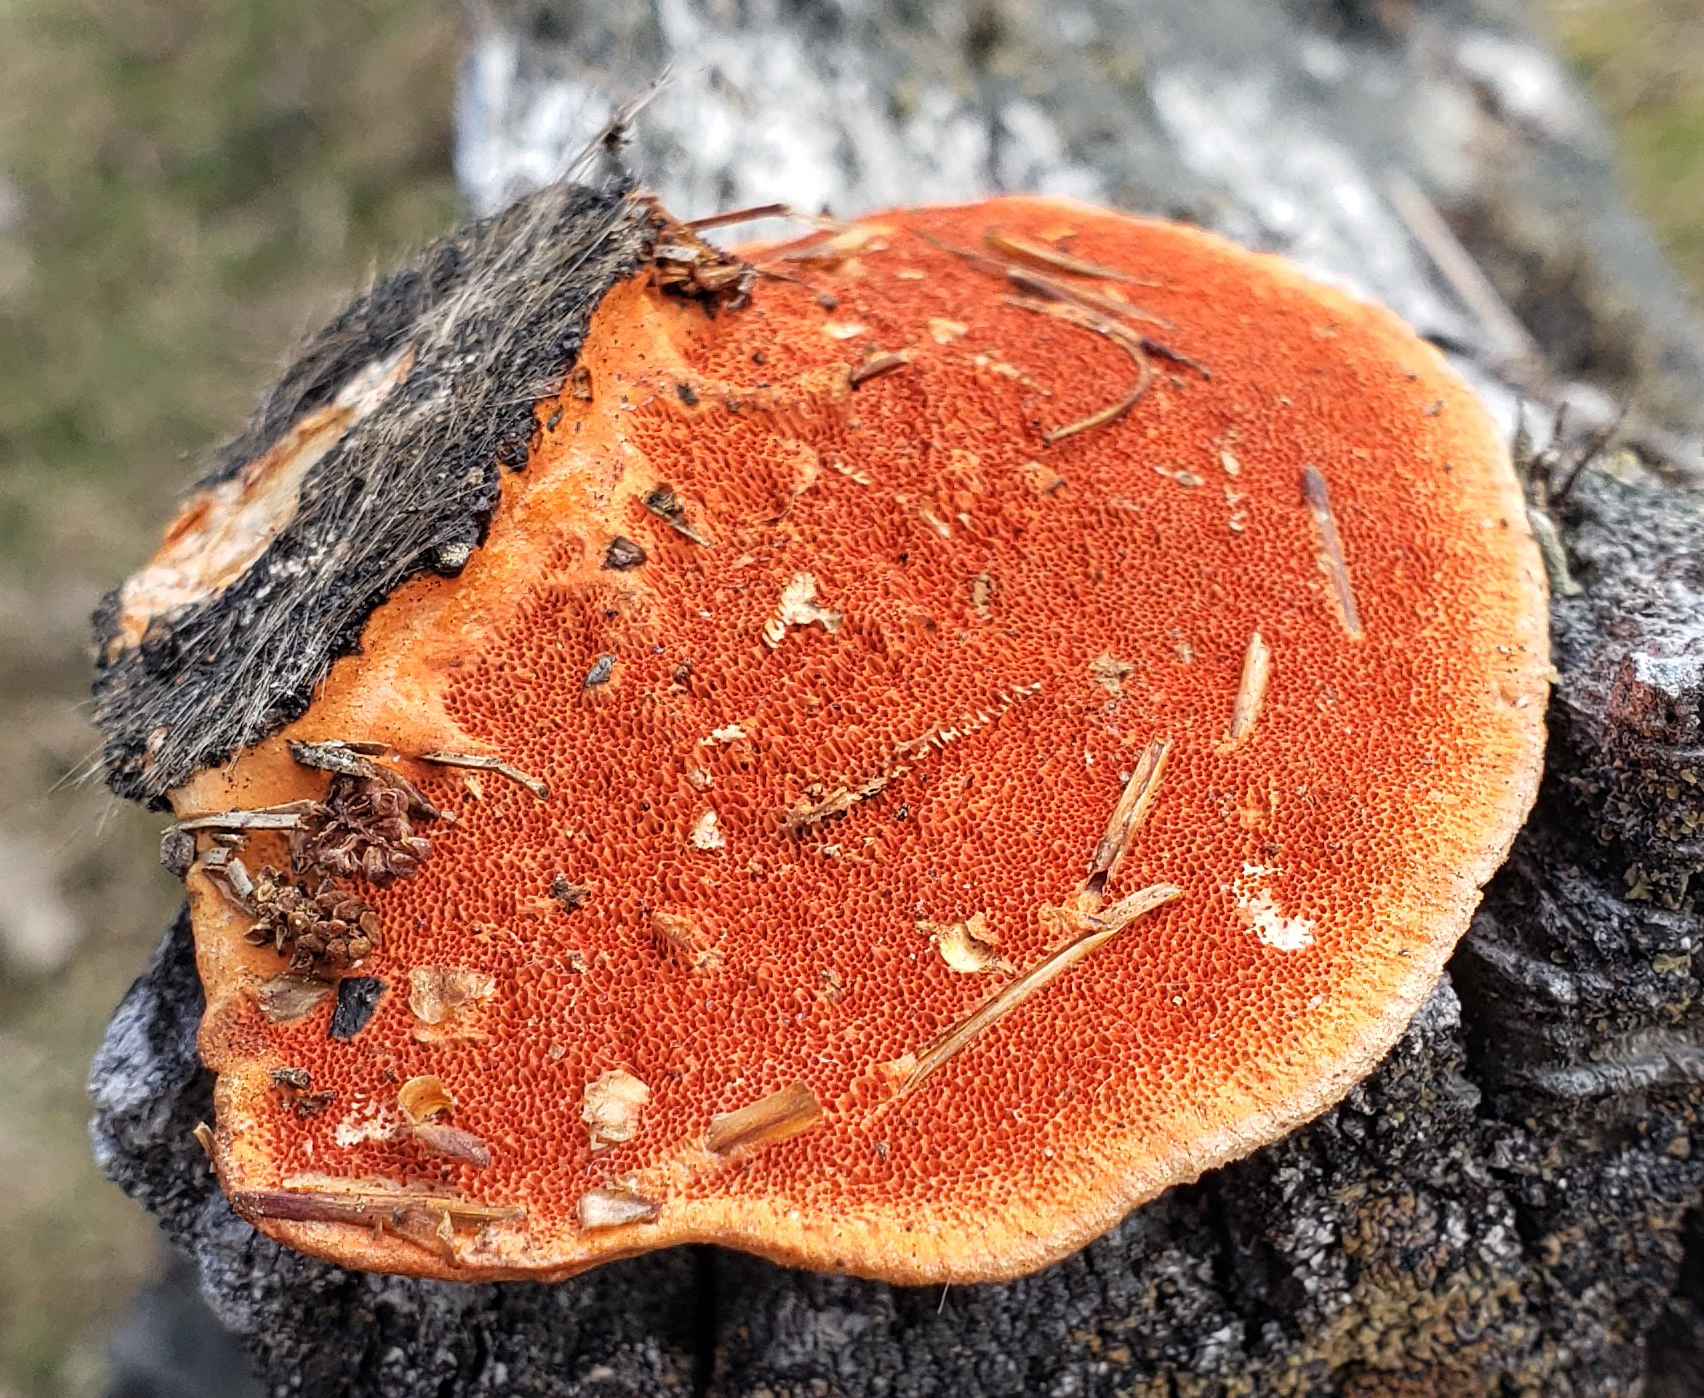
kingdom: Fungi
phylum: Basidiomycota
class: Agaricomycetes
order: Polyporales
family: Polyporaceae
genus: Trametes
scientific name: Trametes cinnabarina
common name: Northern cinnabar polypore
